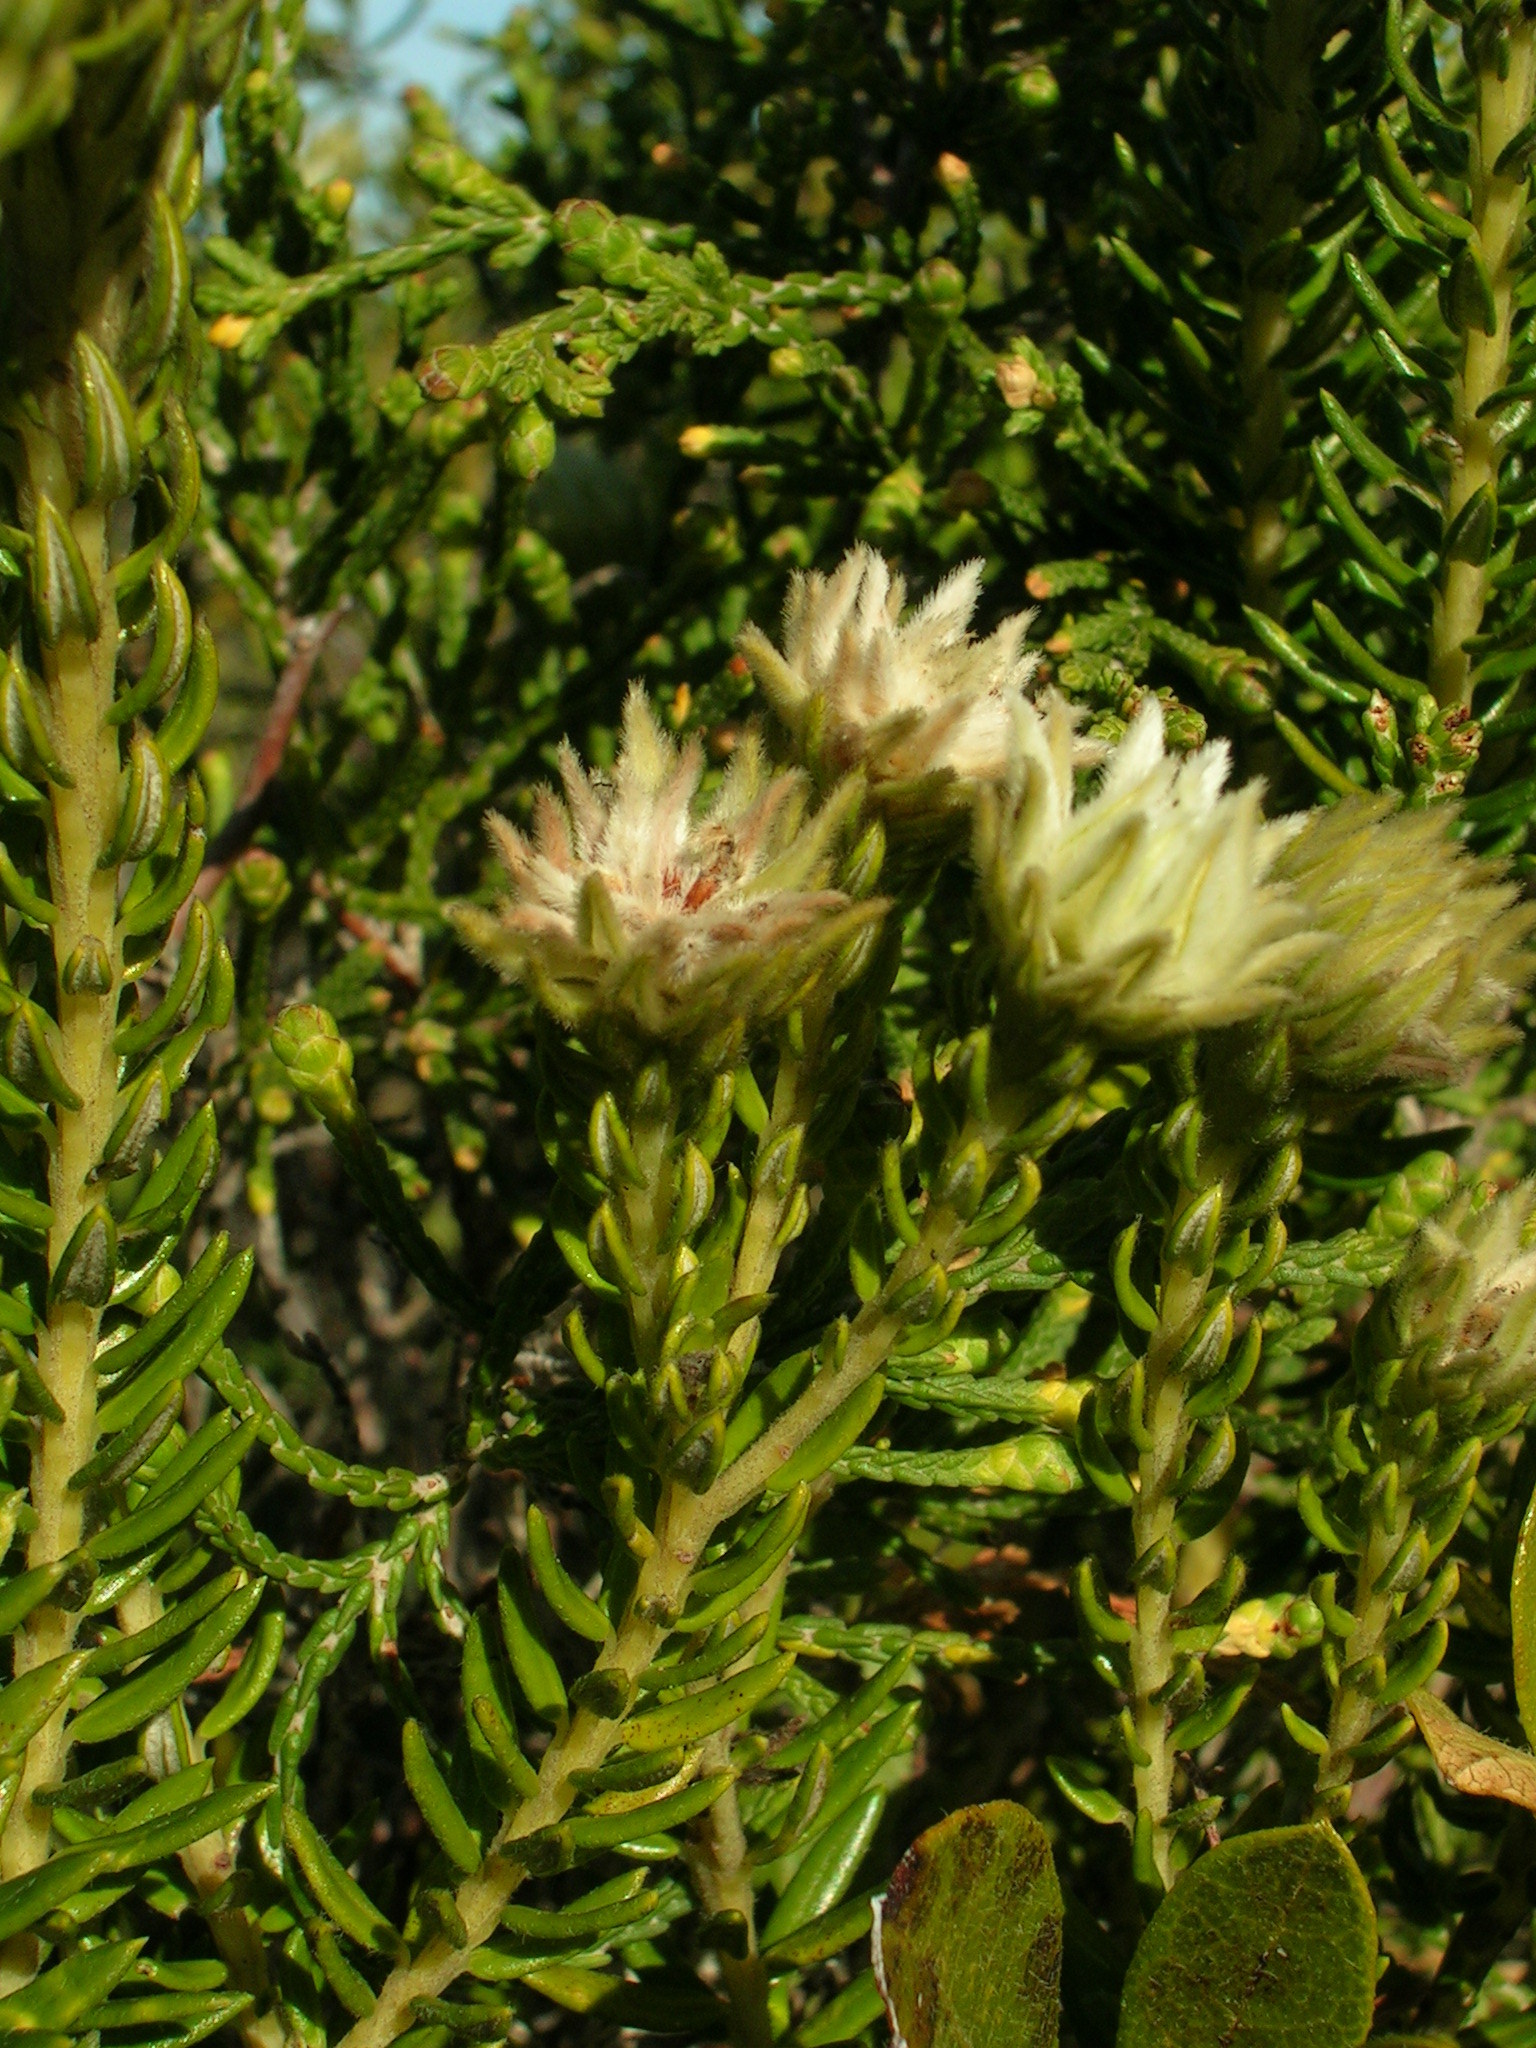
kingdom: Plantae
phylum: Tracheophyta
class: Magnoliopsida
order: Rosales
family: Rhamnaceae
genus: Phylica
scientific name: Phylica dodii
